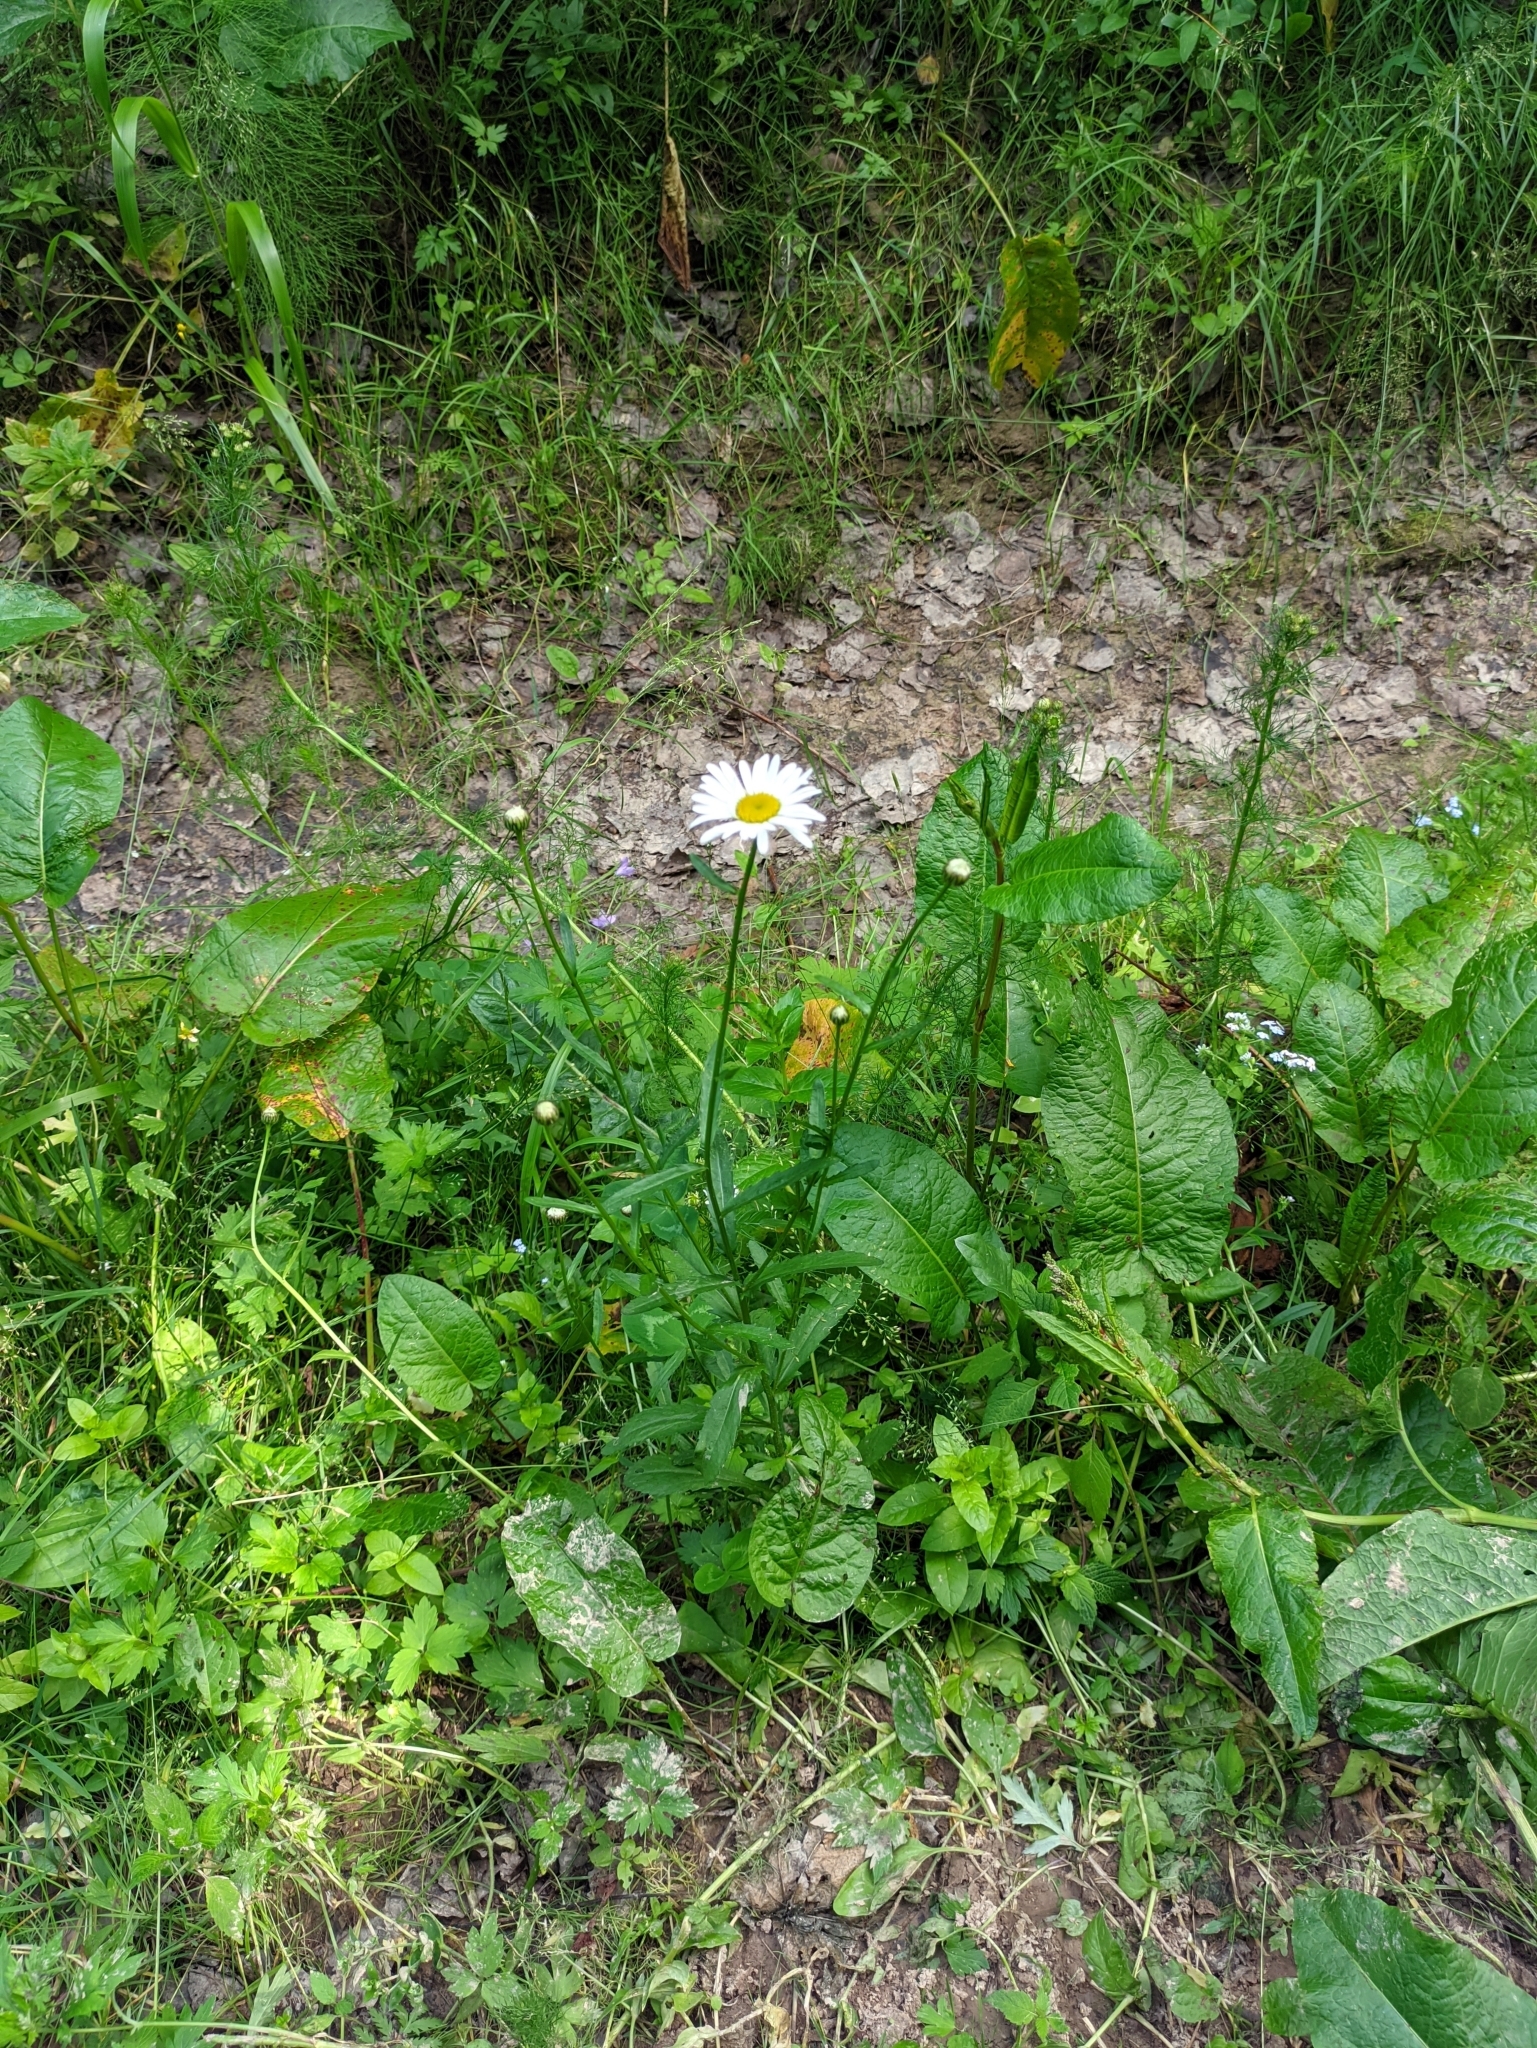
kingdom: Plantae
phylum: Tracheophyta
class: Magnoliopsida
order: Asterales
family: Asteraceae
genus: Leucanthemum
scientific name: Leucanthemum vulgare
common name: Oxeye daisy
